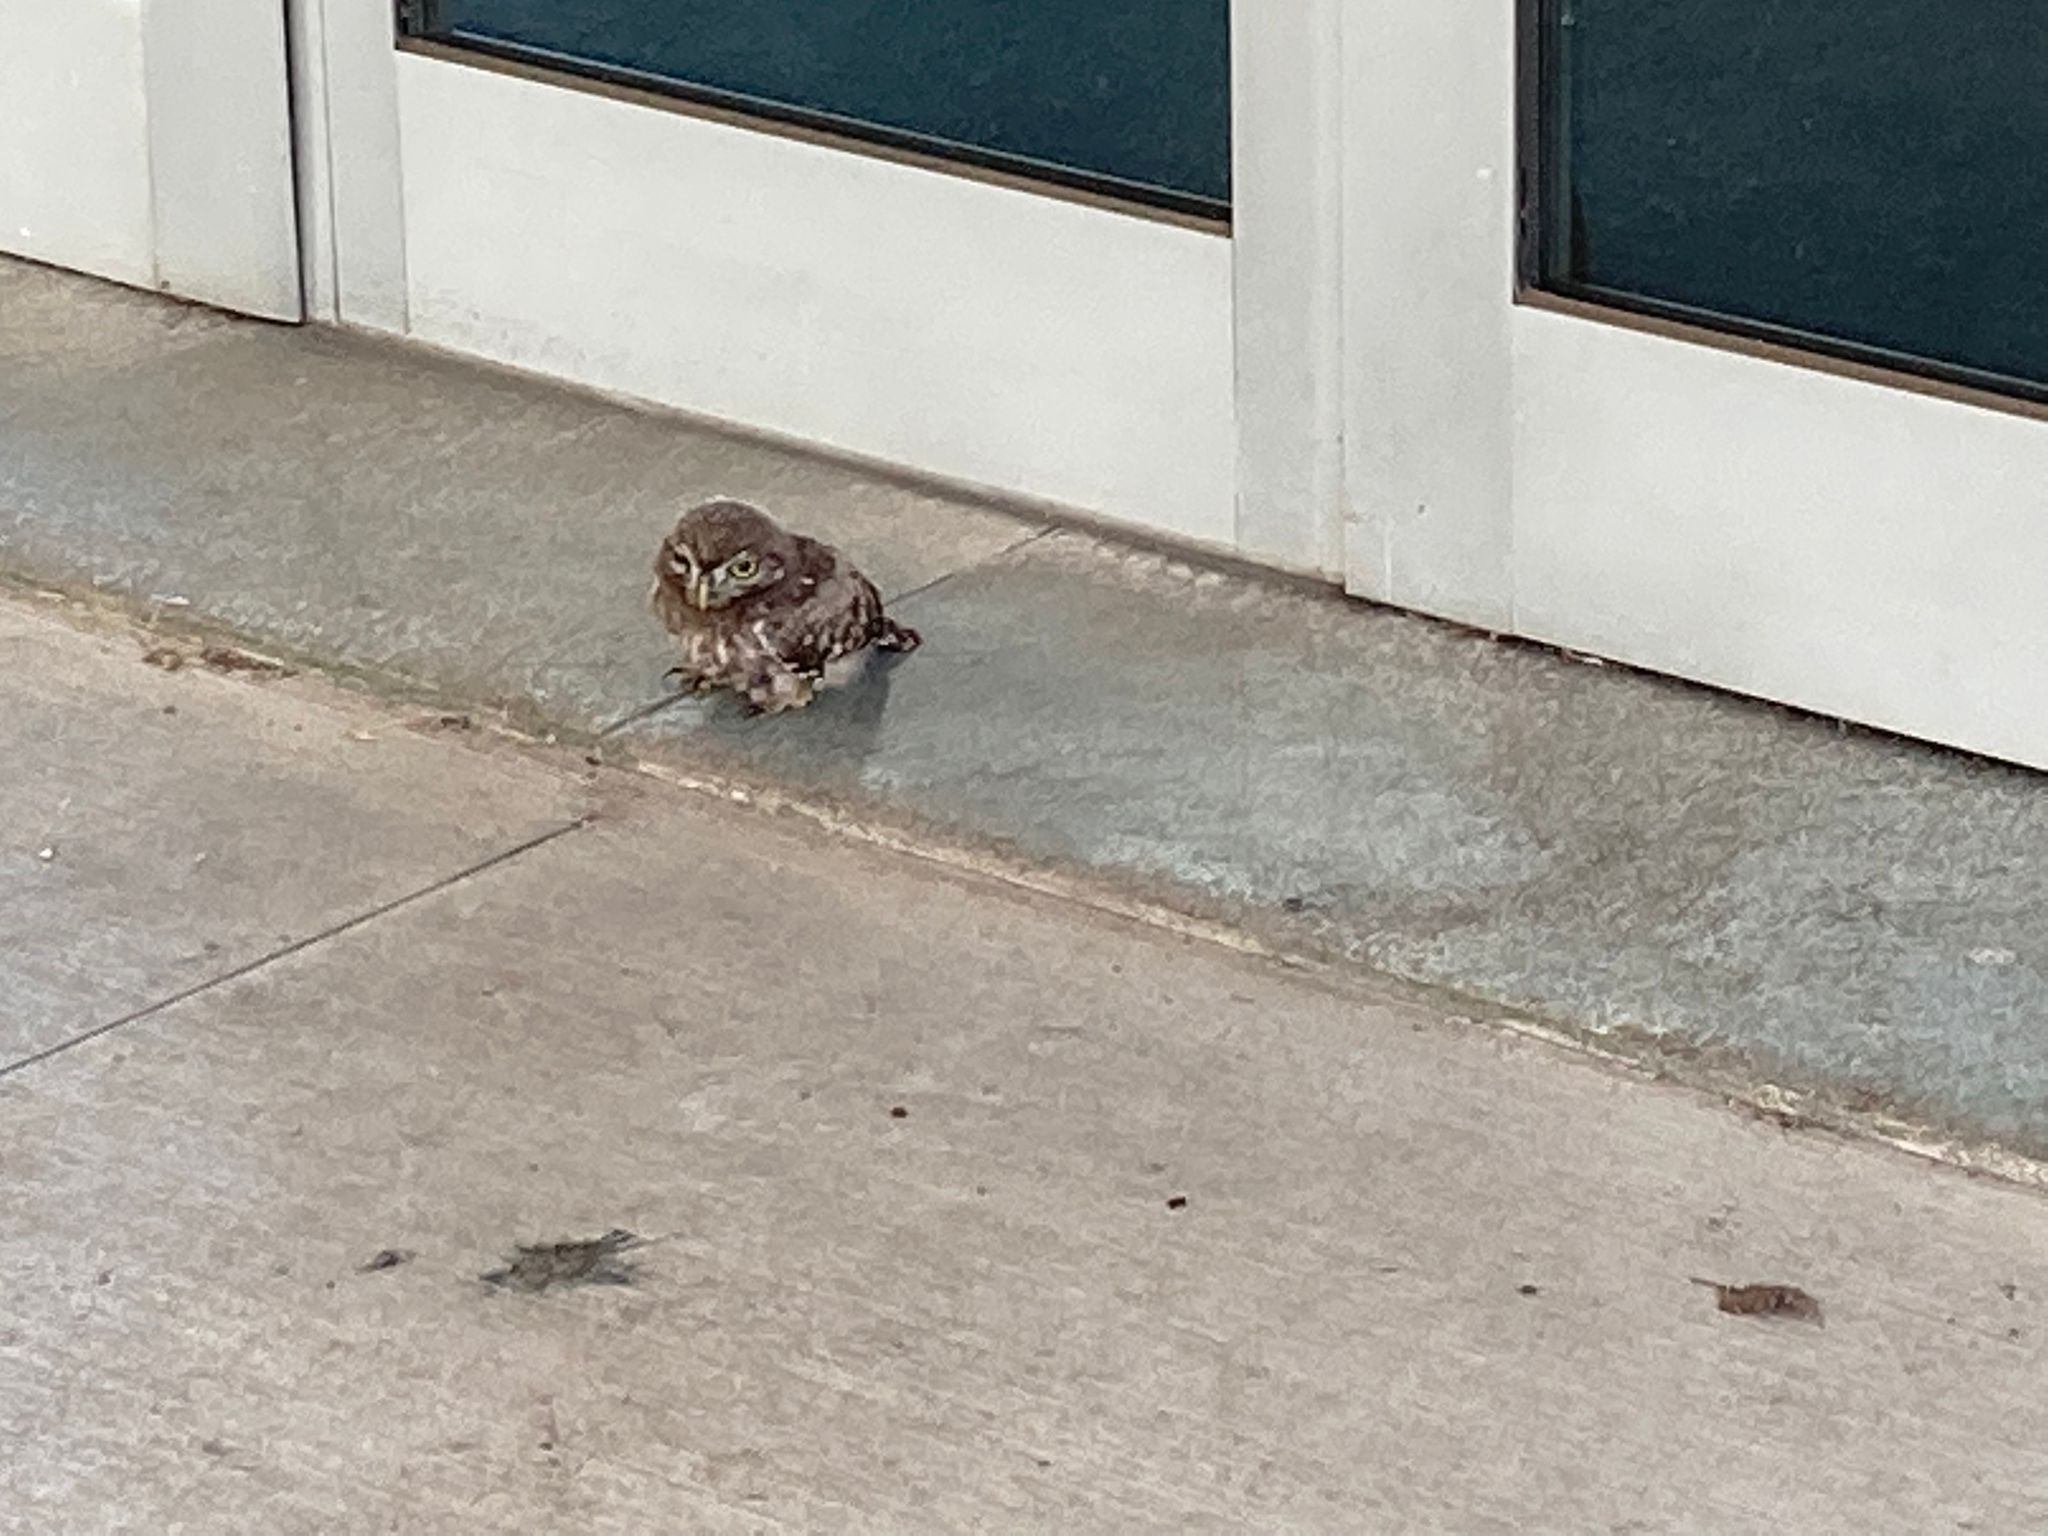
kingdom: Animalia
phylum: Chordata
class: Aves
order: Strigiformes
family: Strigidae
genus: Athene
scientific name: Athene noctua
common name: Little owl
